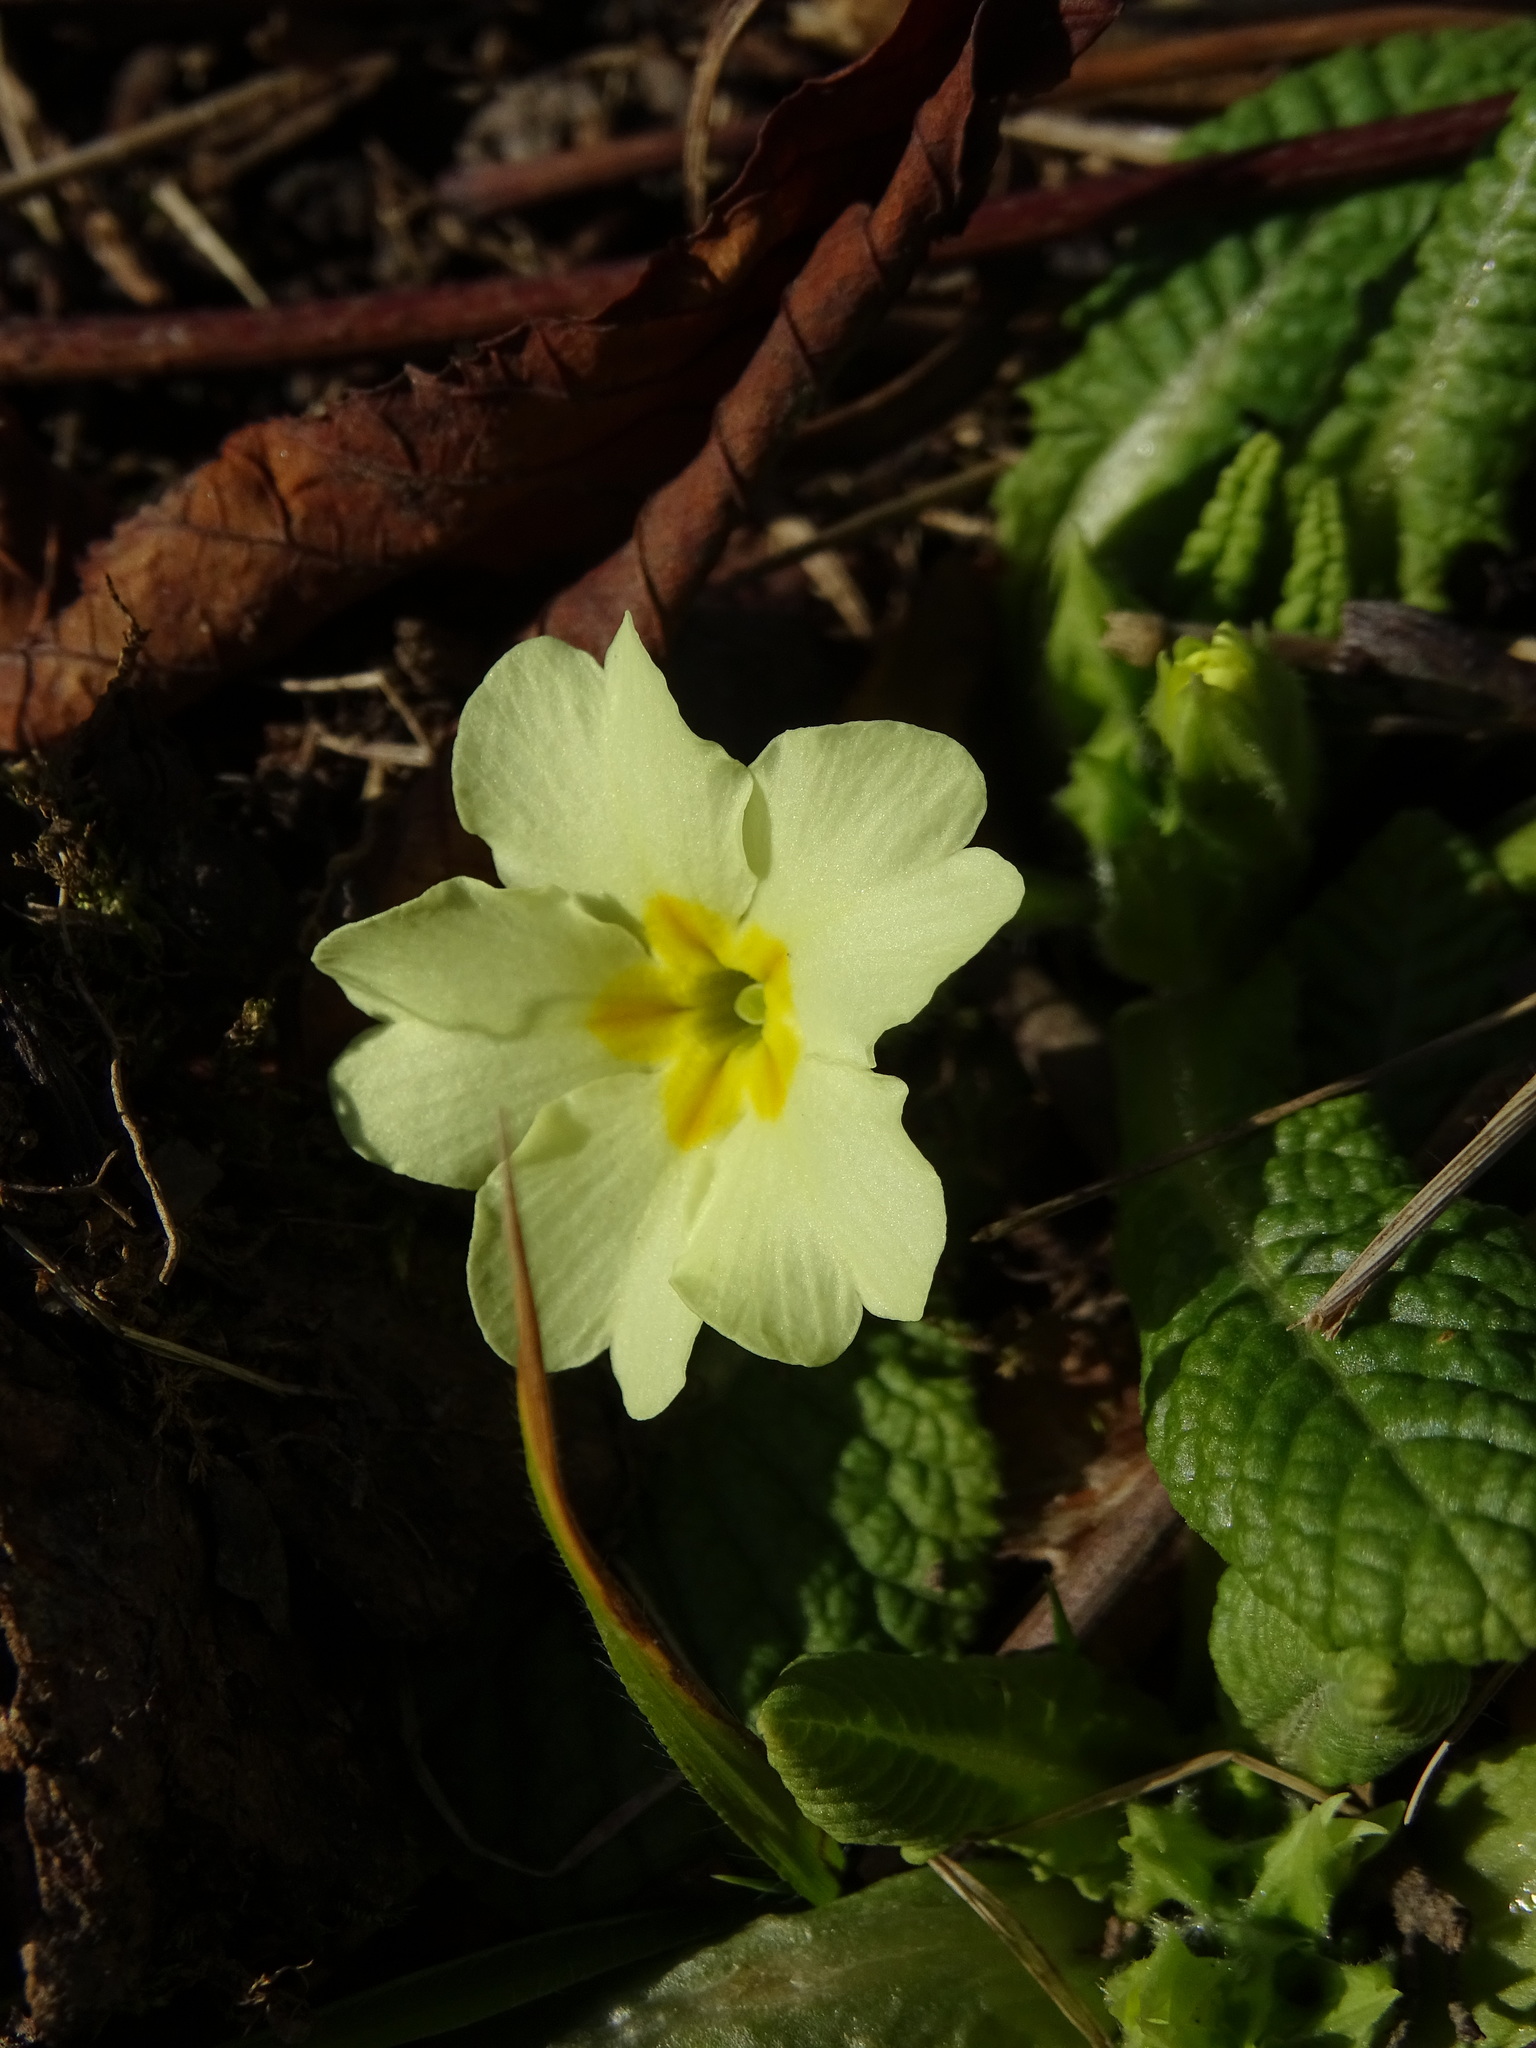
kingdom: Plantae
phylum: Tracheophyta
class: Magnoliopsida
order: Ericales
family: Primulaceae
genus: Primula
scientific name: Primula vulgaris
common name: Primrose
